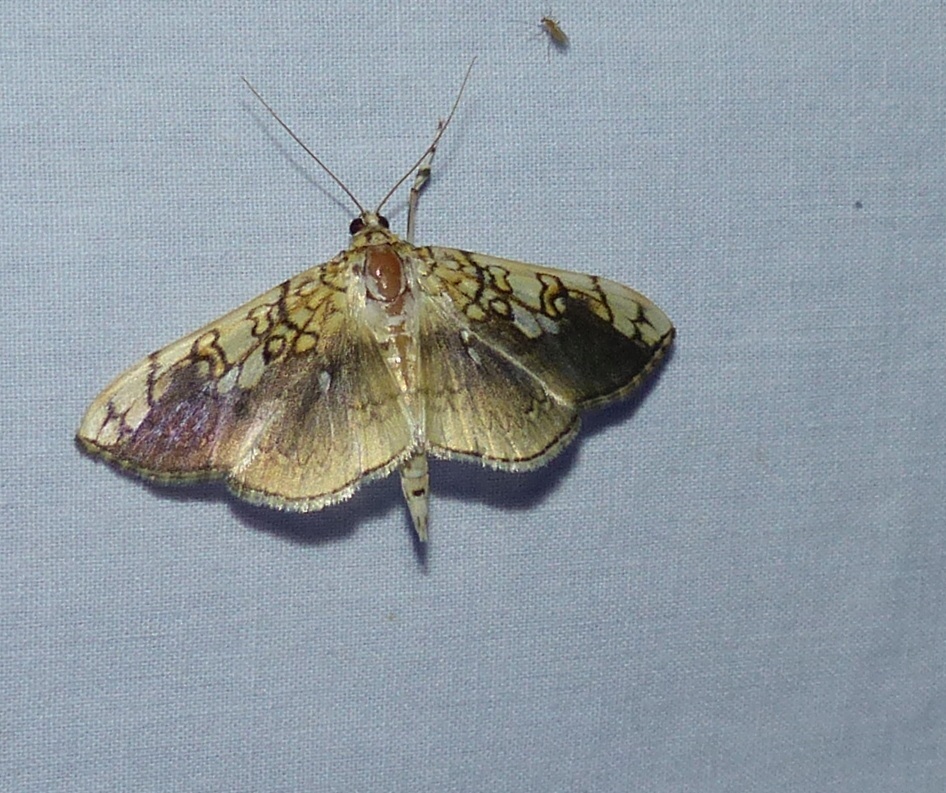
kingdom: Animalia
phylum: Arthropoda
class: Insecta
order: Lepidoptera
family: Crambidae
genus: Pantographa
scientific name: Pantographa limata
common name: Basswood leafroller moth
